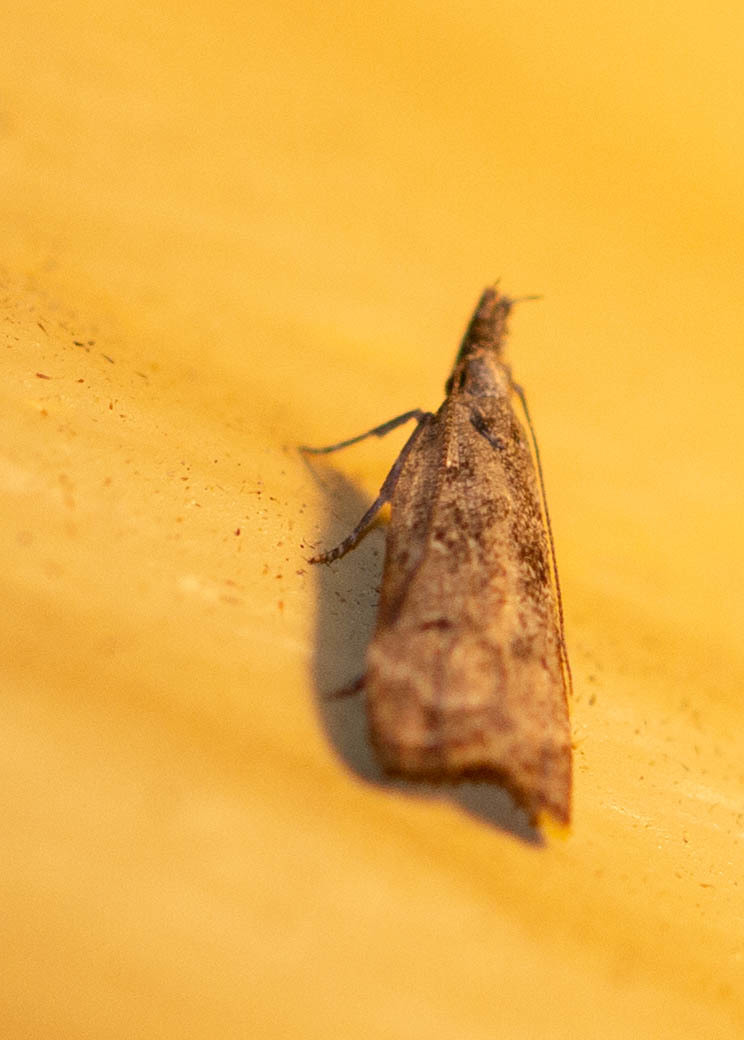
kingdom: Animalia
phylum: Arthropoda
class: Insecta
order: Lepidoptera
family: Gelechiidae
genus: Dichomeris
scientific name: Dichomeris kimballi
